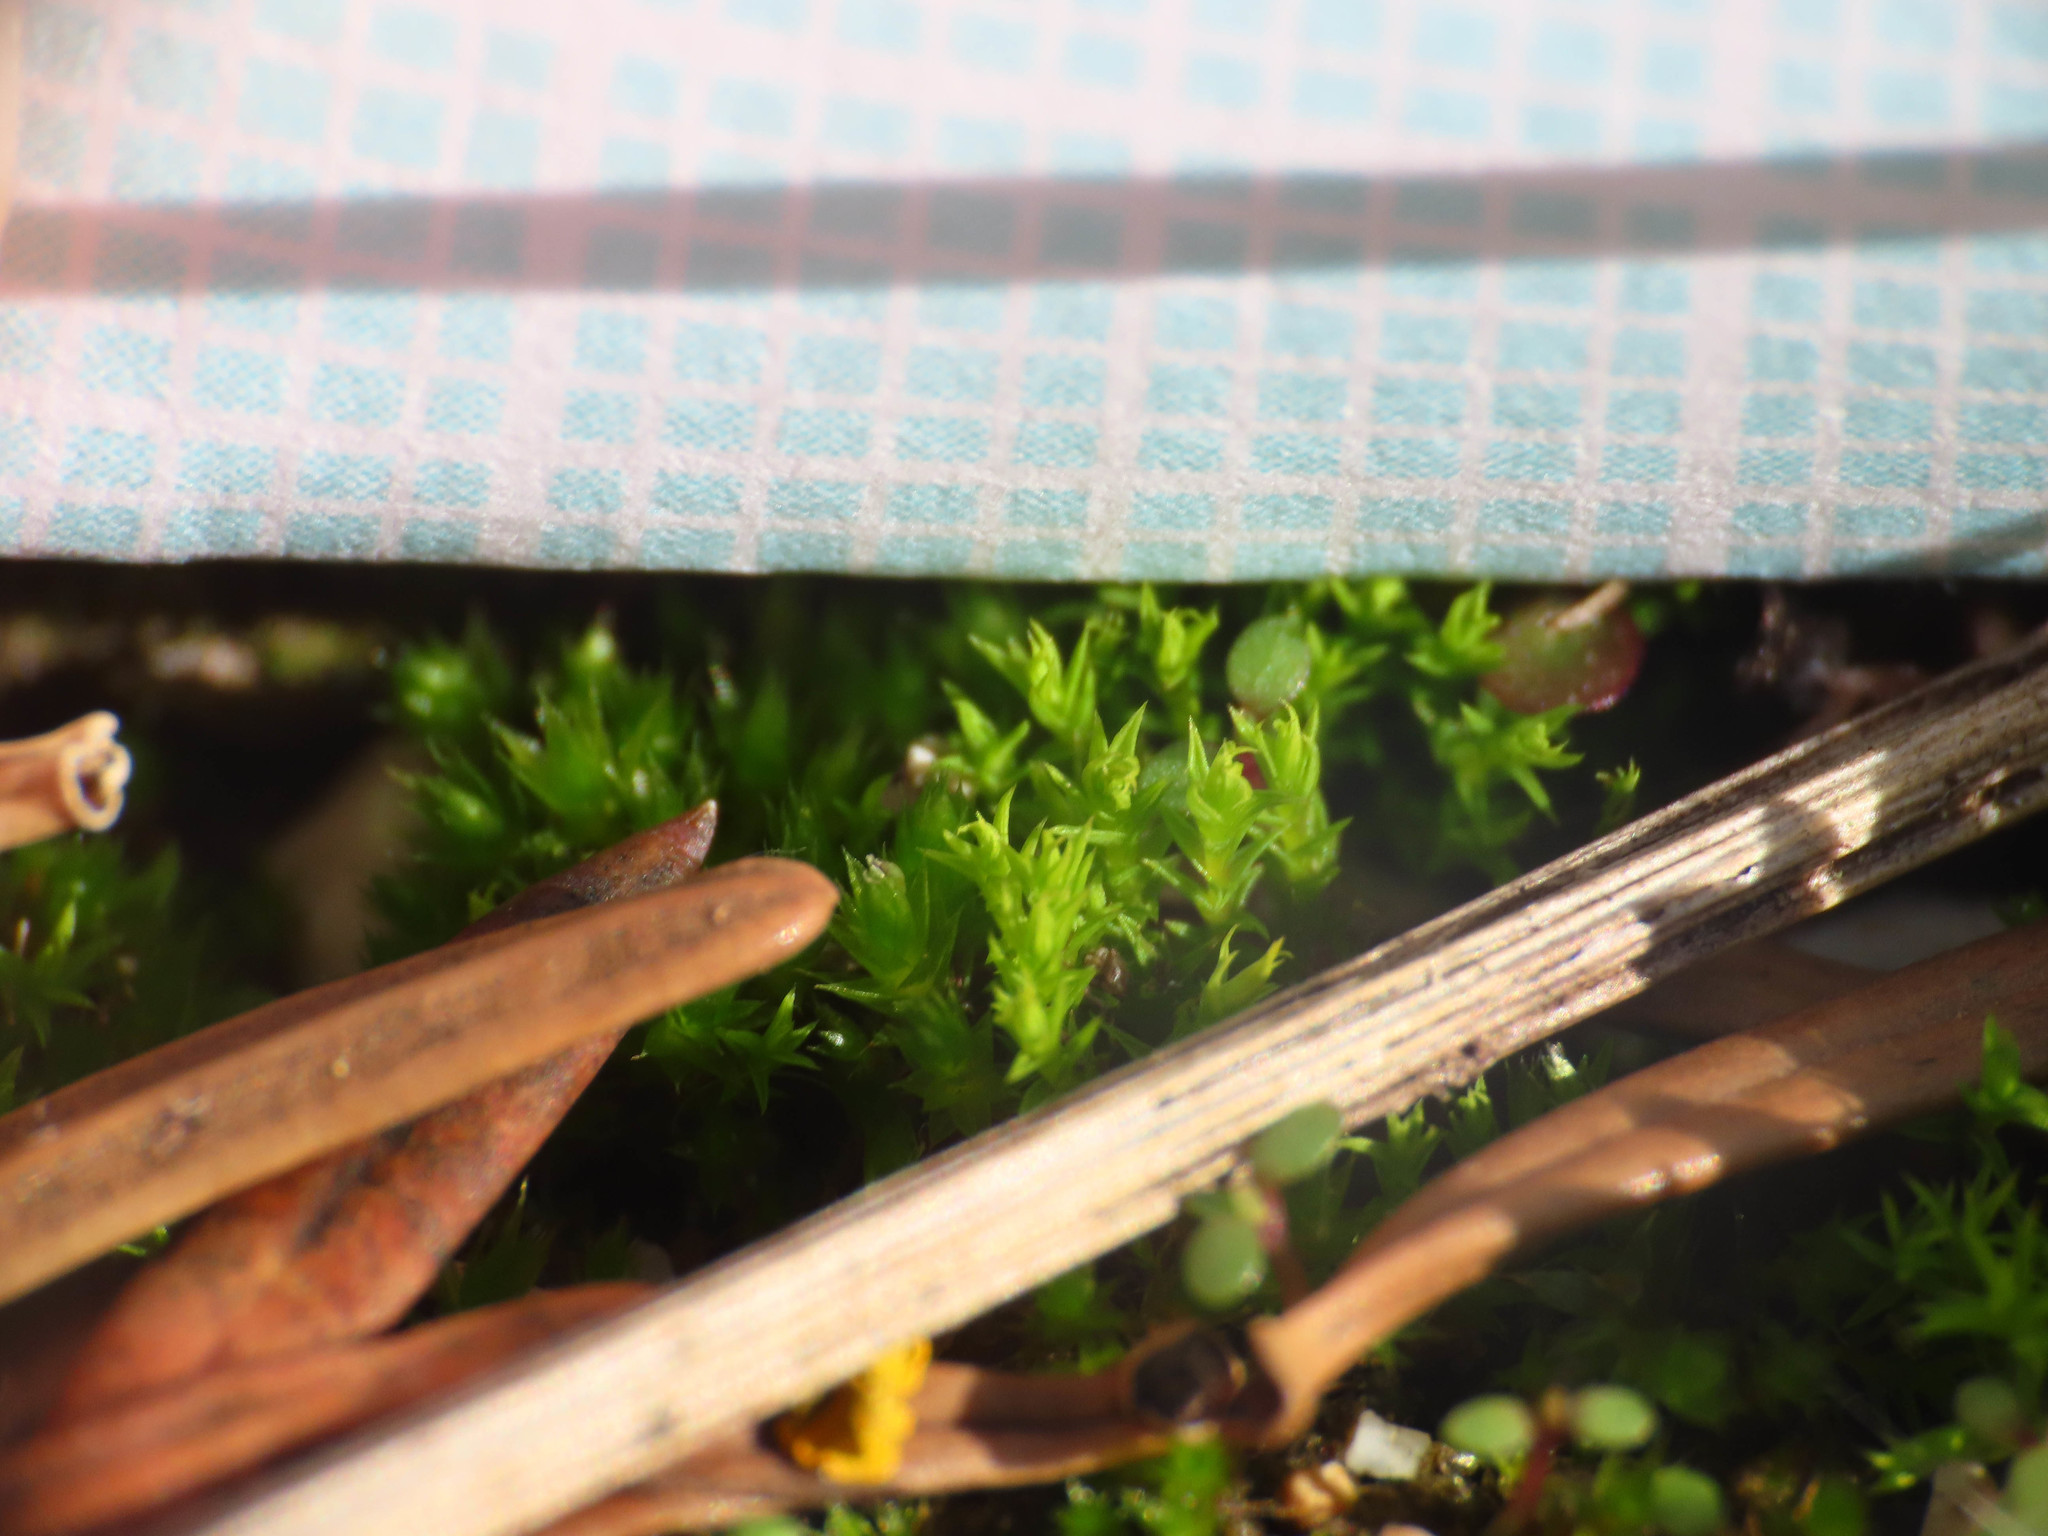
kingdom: Plantae
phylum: Bryophyta
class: Bryopsida
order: Pottiales
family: Pottiaceae
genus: Pseudocrossidium
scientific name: Pseudocrossidium hornschuchianum
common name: Hornschuch's beard-moss
